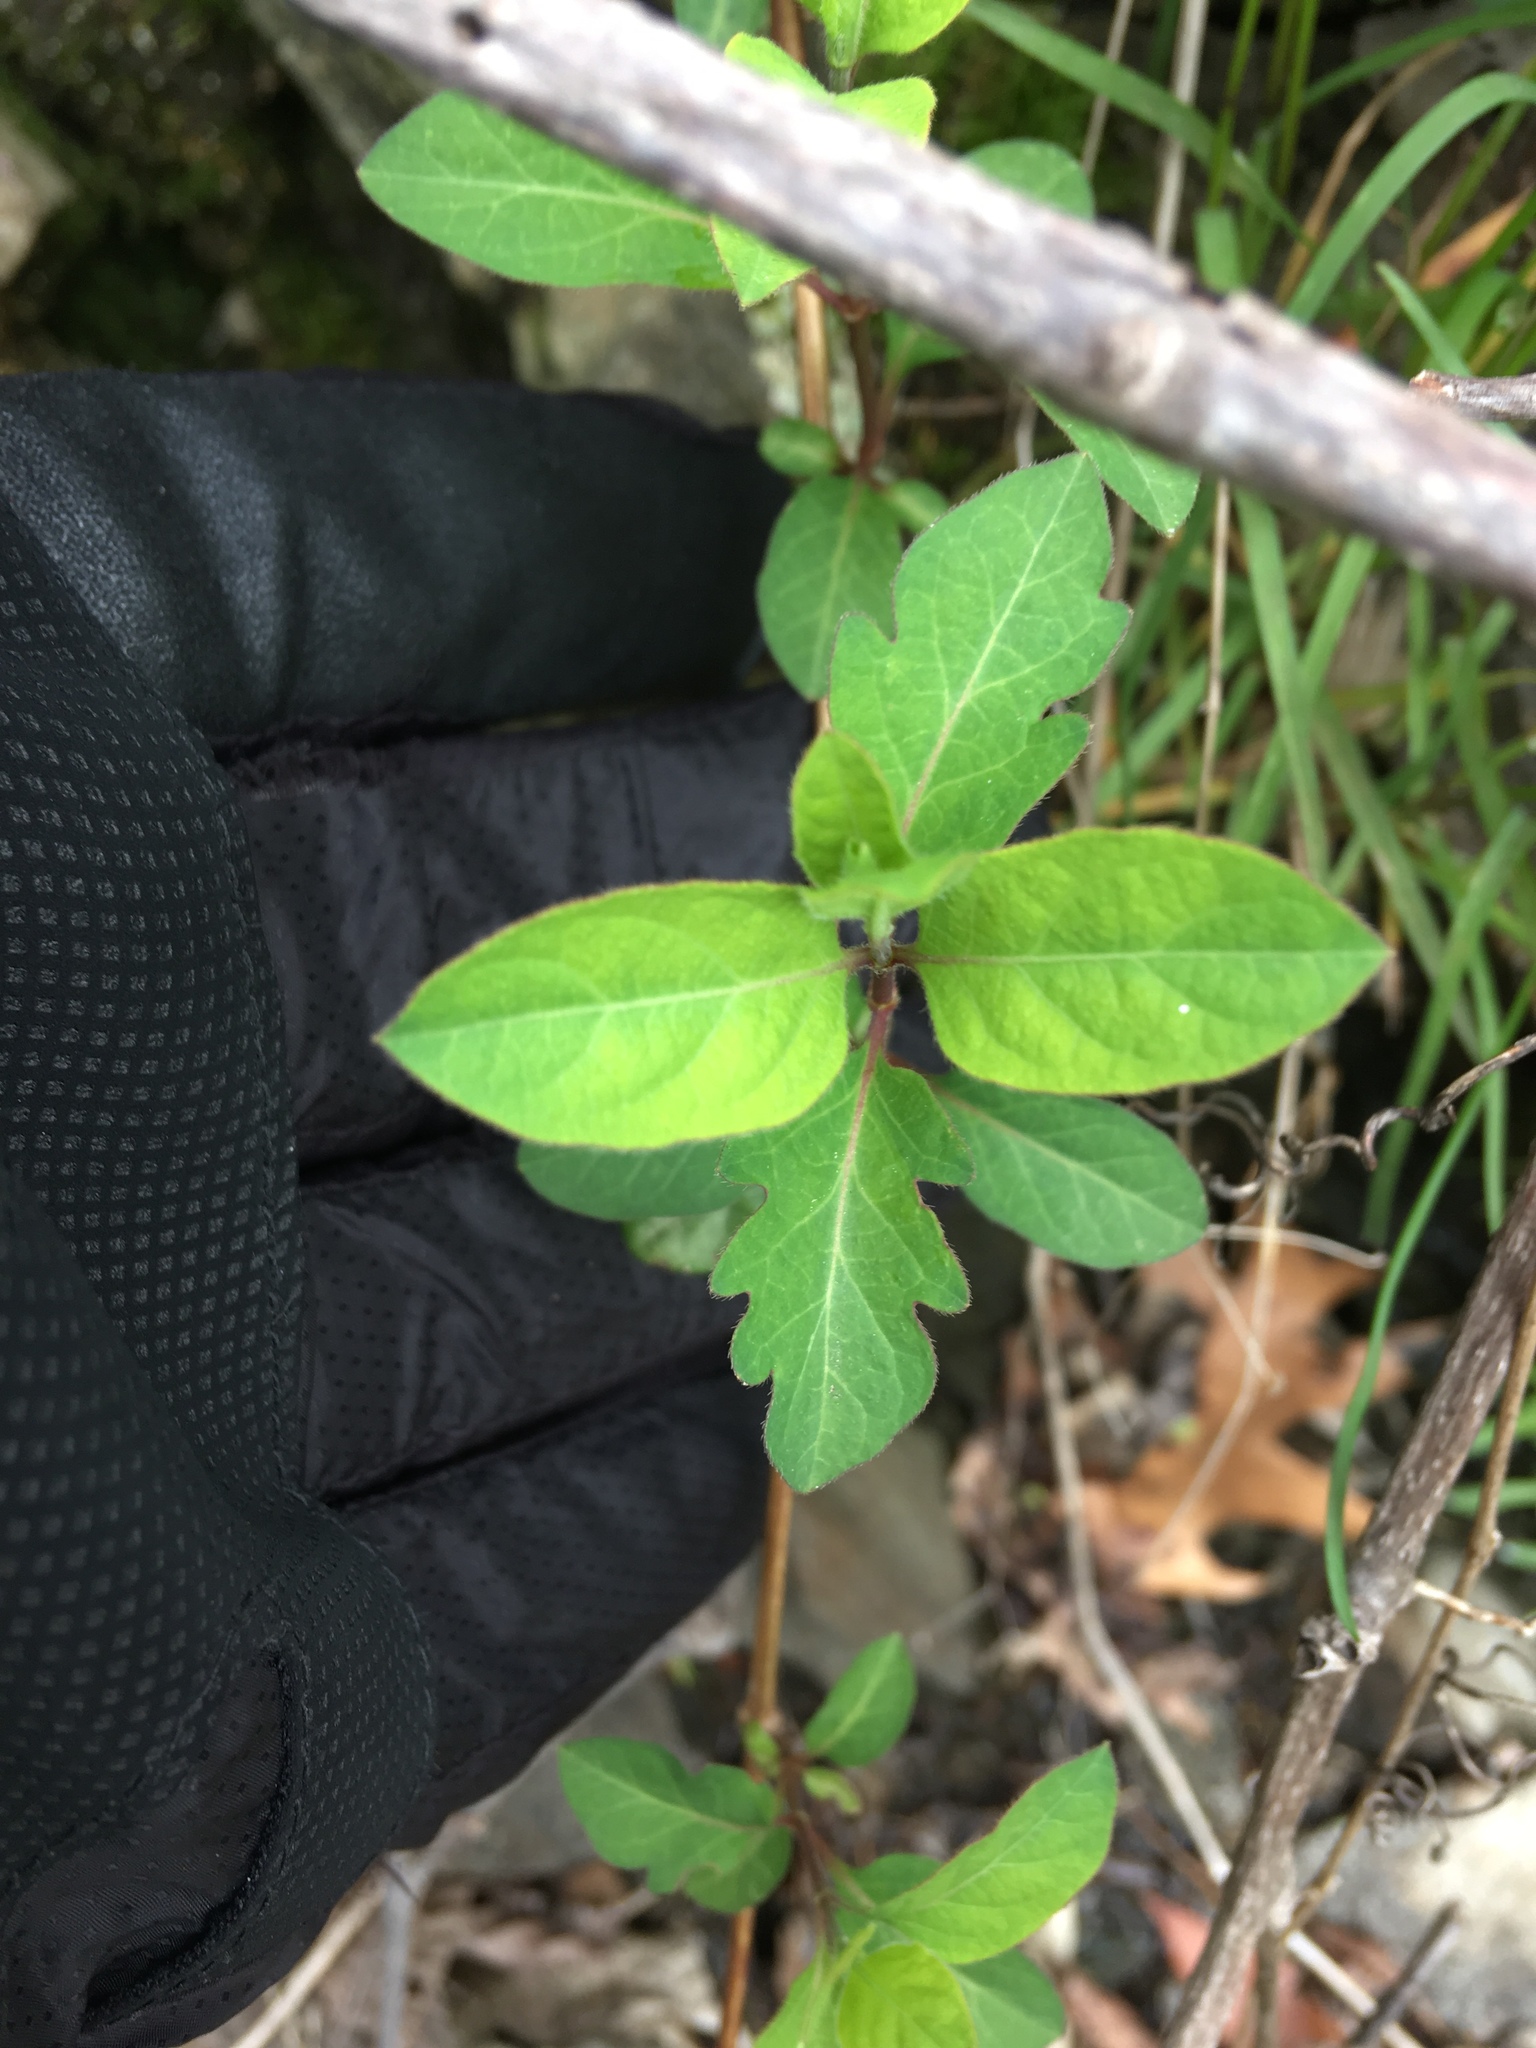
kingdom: Plantae
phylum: Tracheophyta
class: Magnoliopsida
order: Dipsacales
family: Caprifoliaceae
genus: Lonicera
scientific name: Lonicera japonica
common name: Japanese honeysuckle
